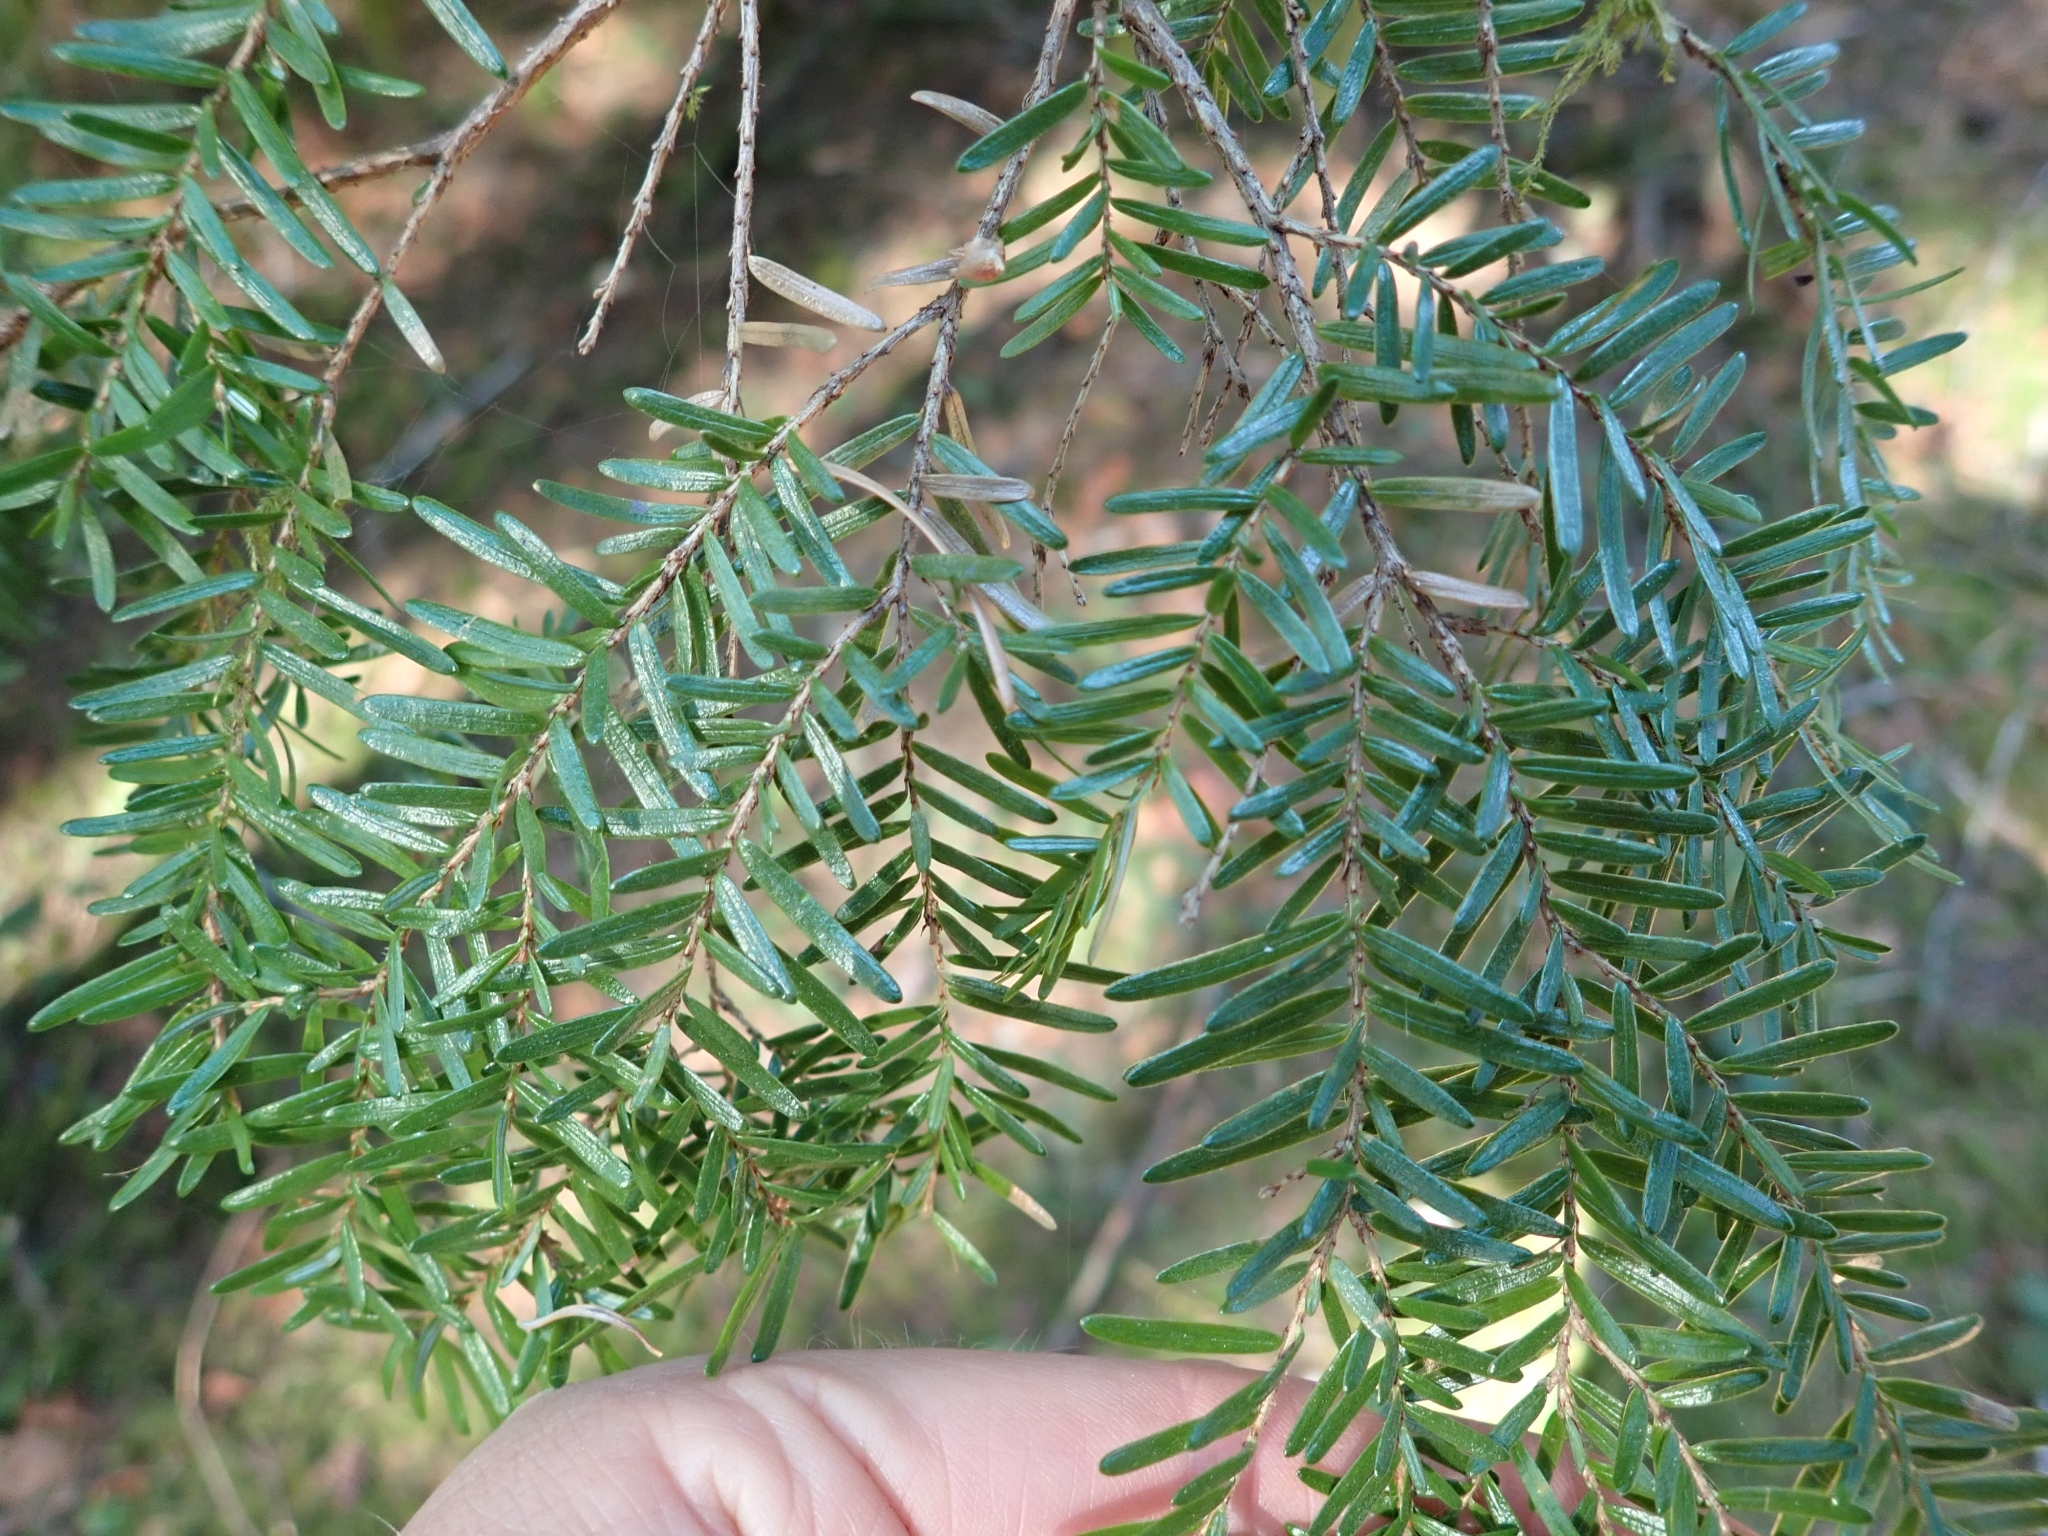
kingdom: Plantae
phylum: Tracheophyta
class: Pinopsida
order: Pinales
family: Pinaceae
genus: Tsuga
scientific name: Tsuga heterophylla
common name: Western hemlock
